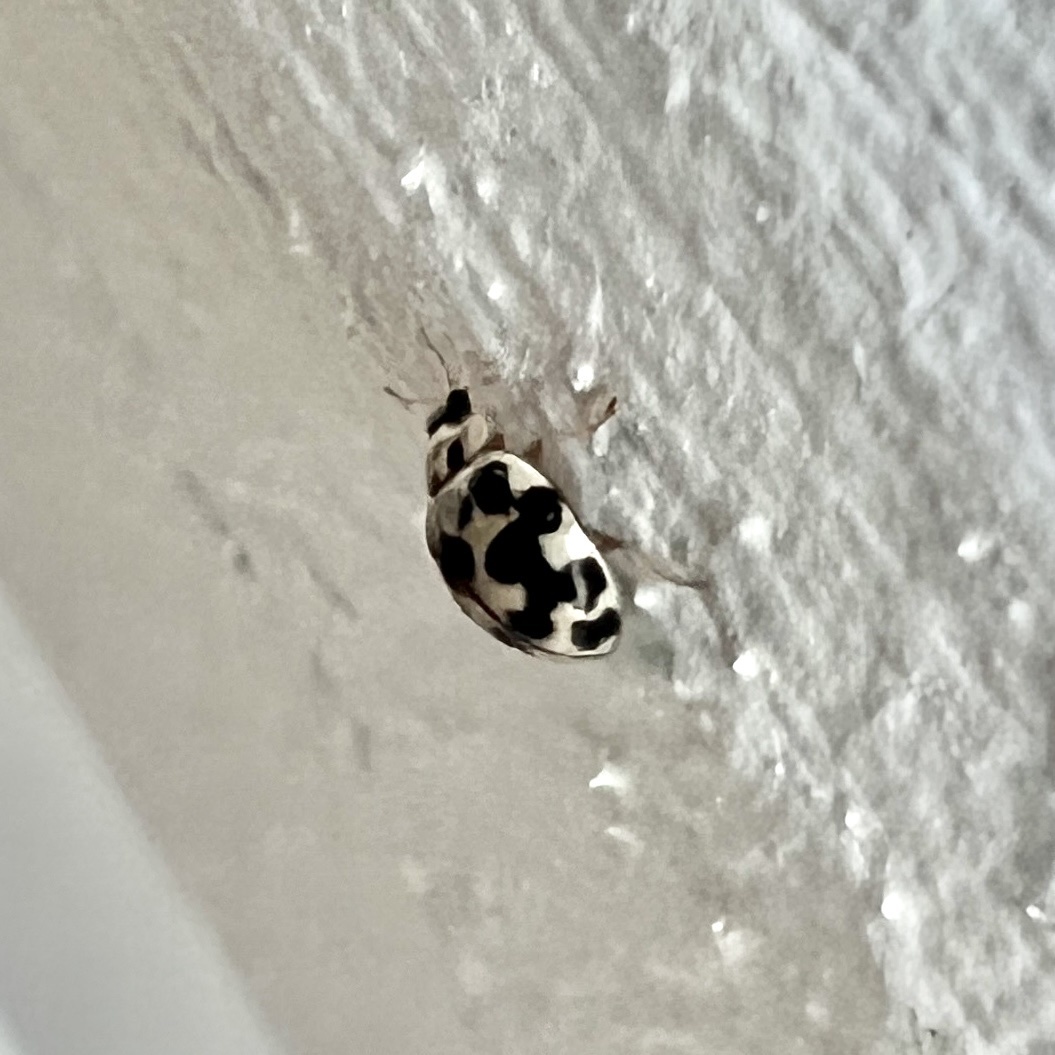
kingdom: Animalia
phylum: Arthropoda
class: Insecta
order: Coleoptera
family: Coccinellidae
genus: Psyllobora
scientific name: Psyllobora vigintimaculata
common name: Ladybird beetle
